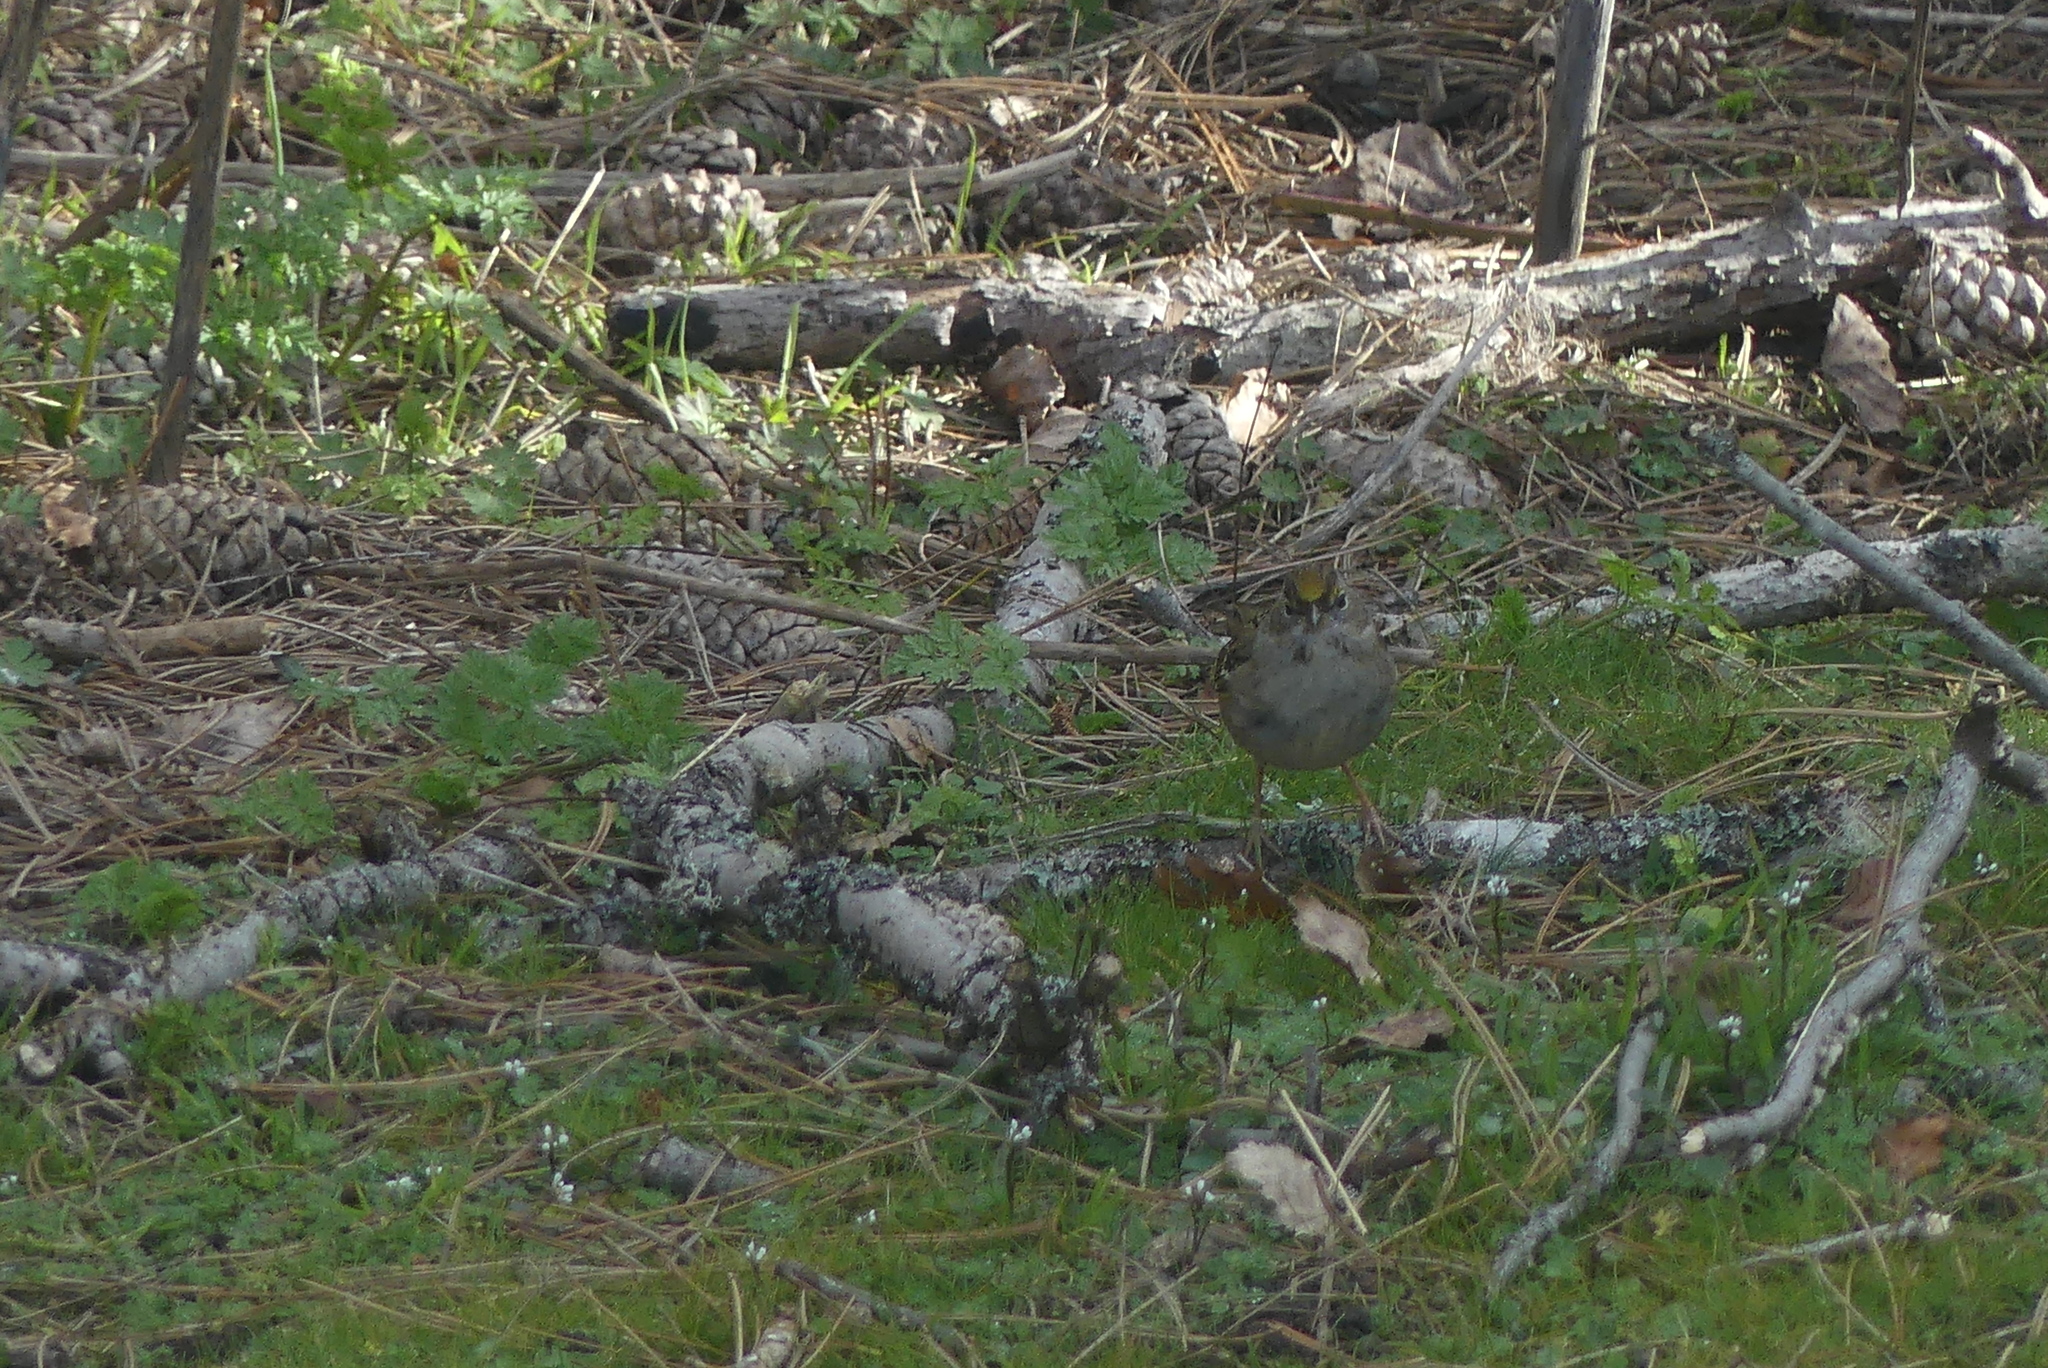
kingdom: Animalia
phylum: Chordata
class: Aves
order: Passeriformes
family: Passerellidae
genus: Zonotrichia
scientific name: Zonotrichia atricapilla
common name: Golden-crowned sparrow
